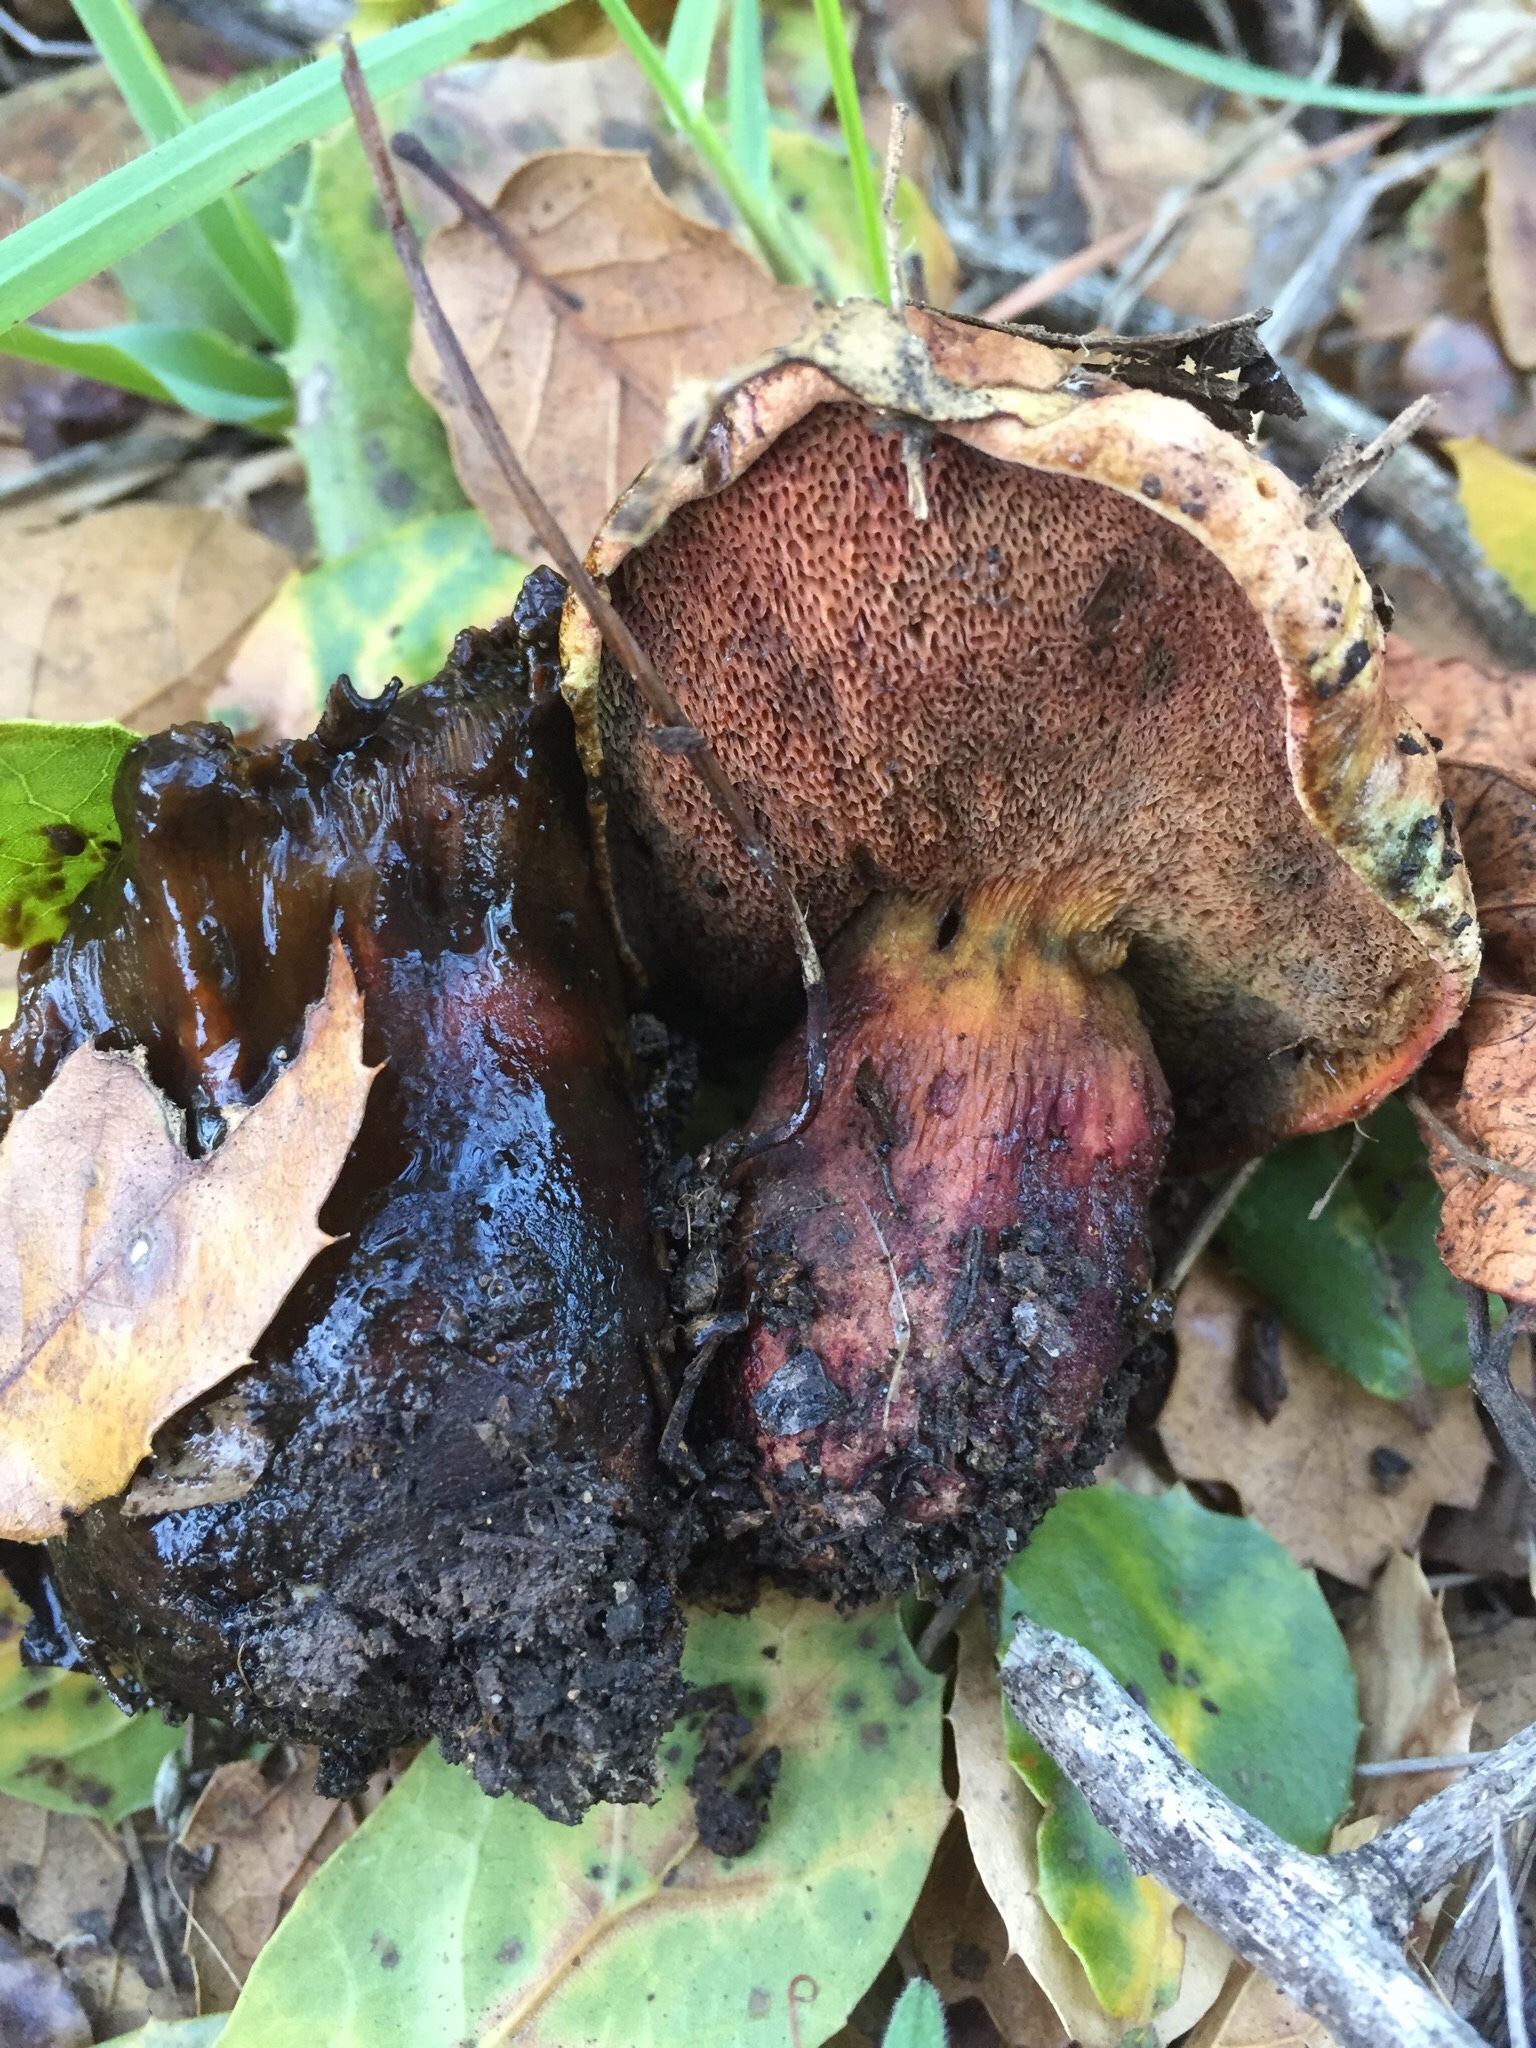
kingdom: Fungi
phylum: Basidiomycota
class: Agaricomycetes
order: Boletales
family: Boletaceae
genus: Suillellus
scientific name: Suillellus amygdalinus
